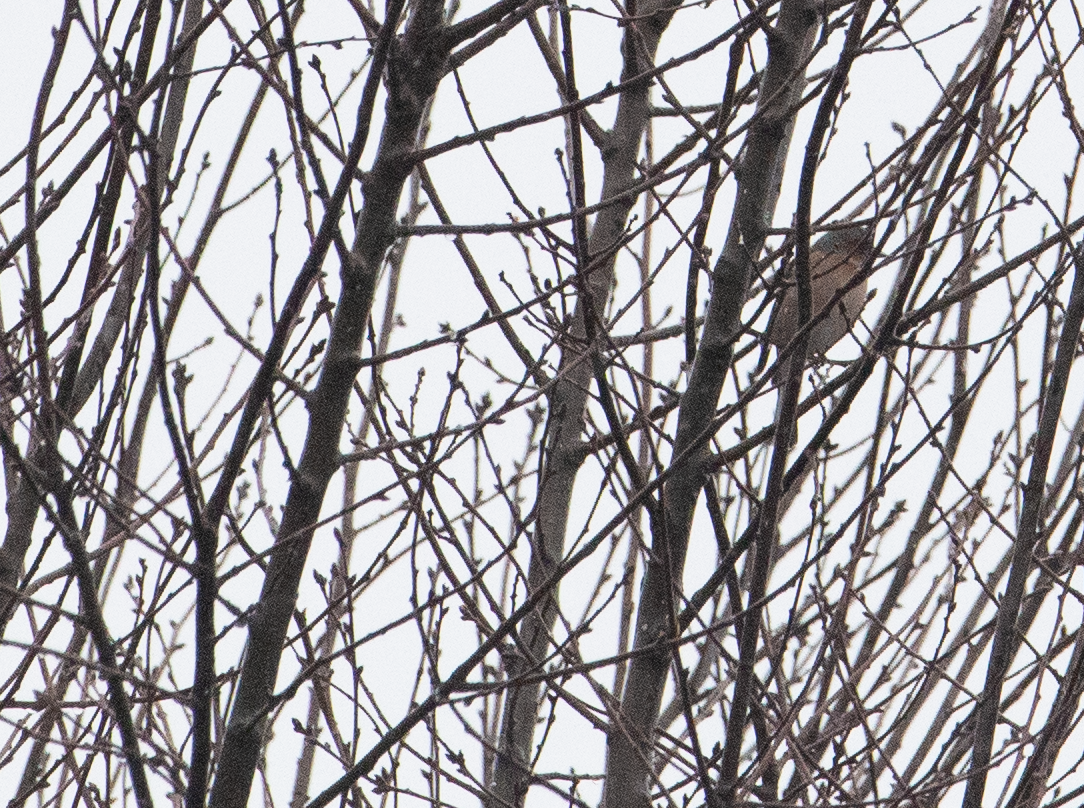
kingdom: Animalia
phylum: Chordata
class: Aves
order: Passeriformes
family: Fringillidae
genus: Fringilla
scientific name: Fringilla coelebs
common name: Common chaffinch
